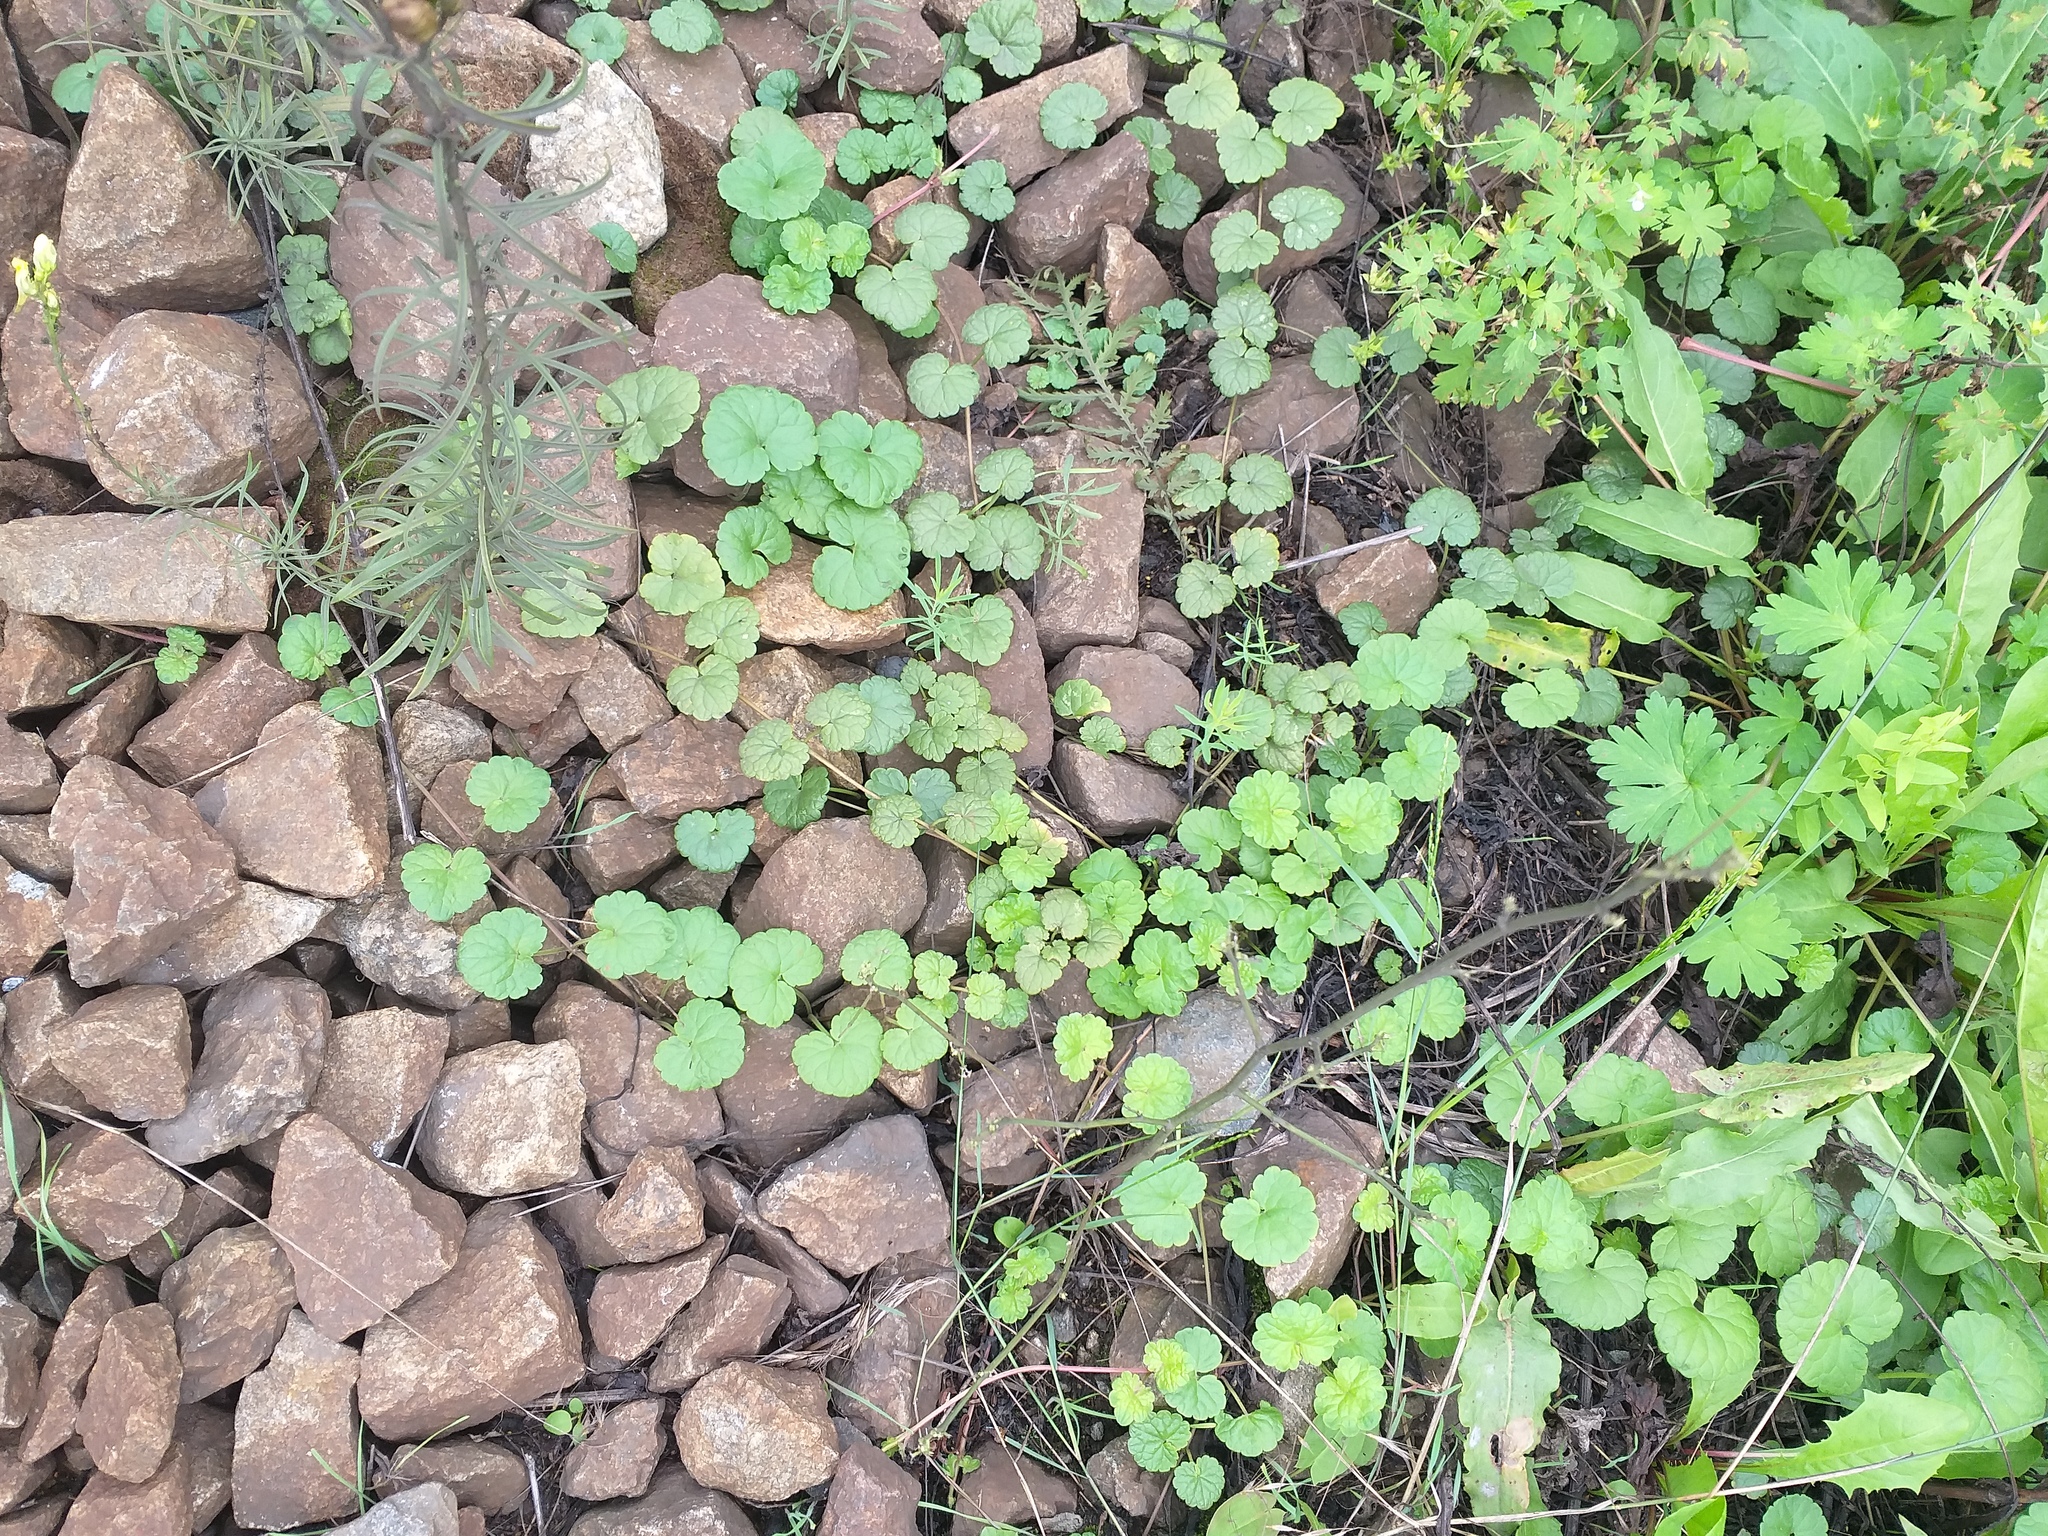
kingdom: Plantae
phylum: Tracheophyta
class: Magnoliopsida
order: Lamiales
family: Lamiaceae
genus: Glechoma
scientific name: Glechoma hederacea
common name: Ground ivy
